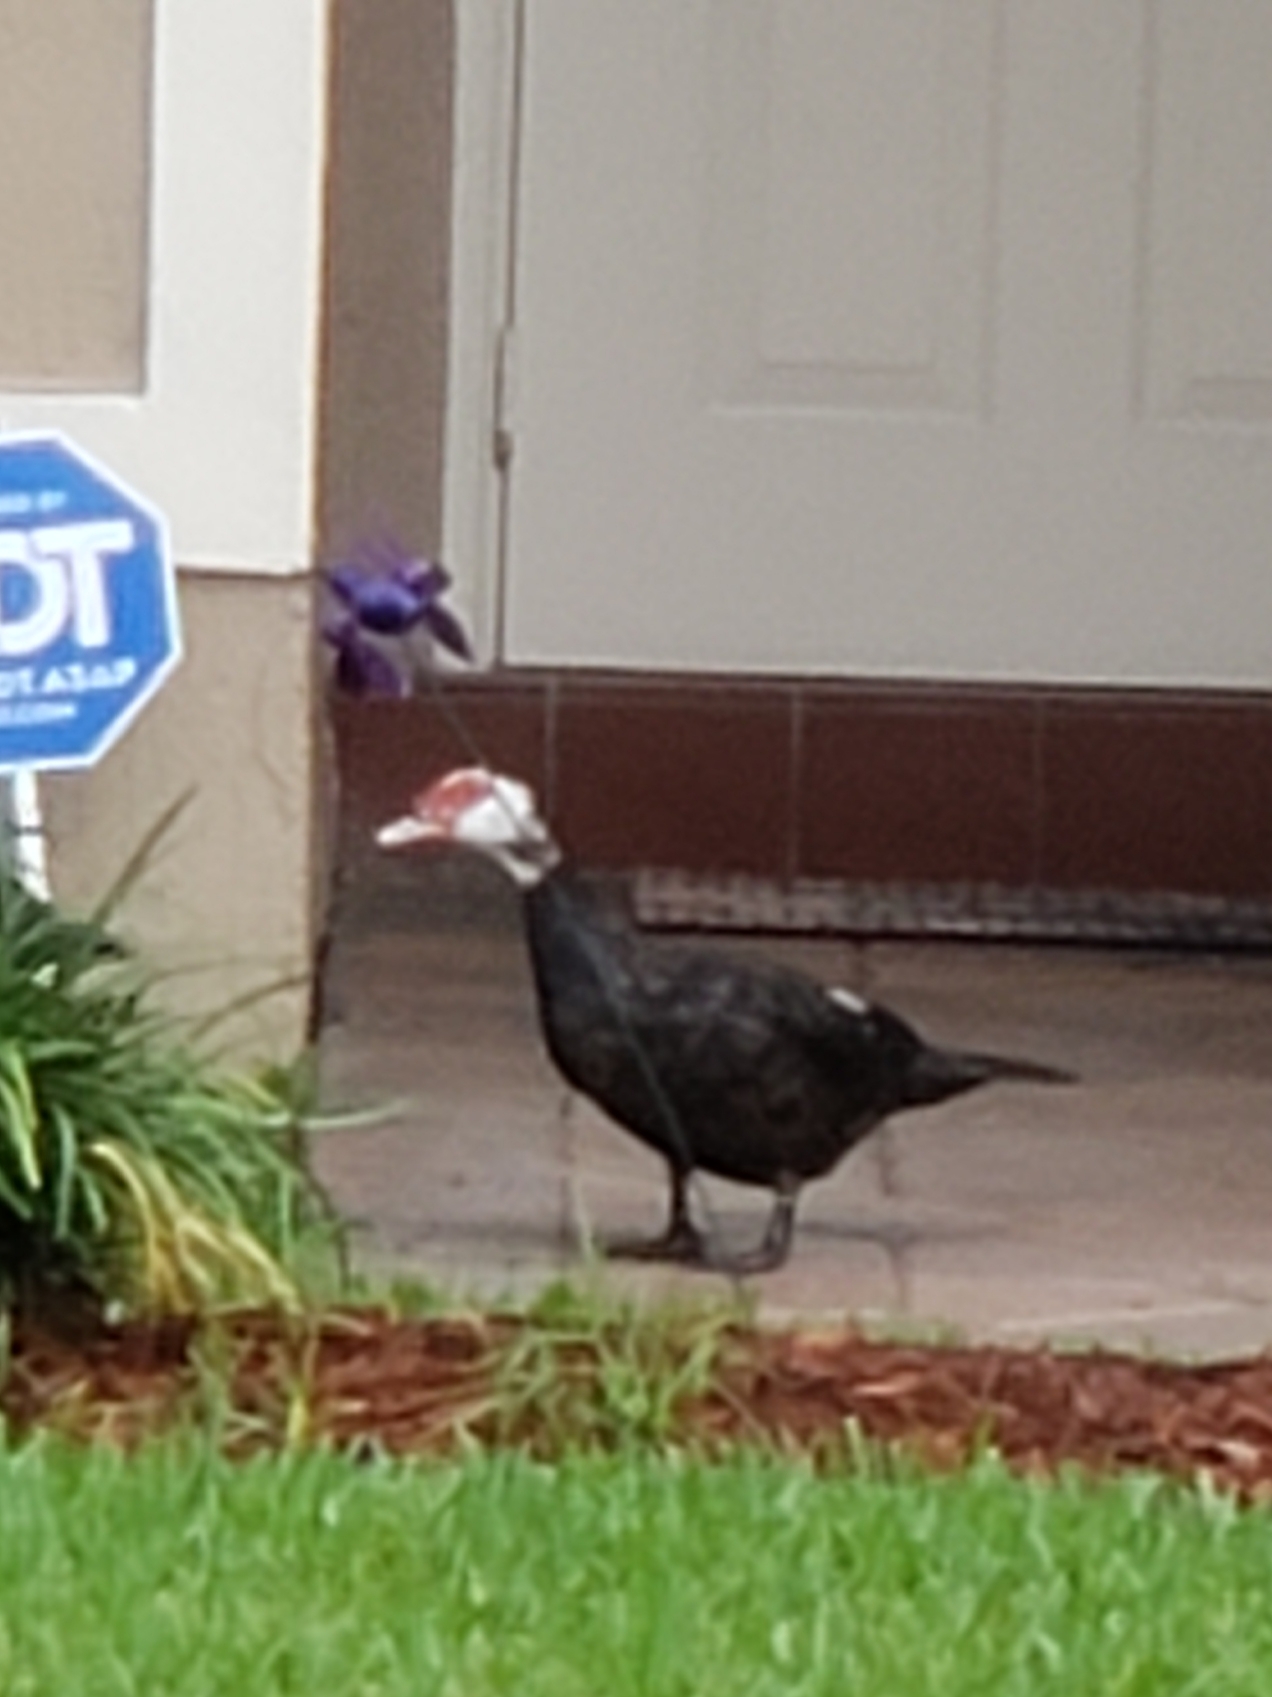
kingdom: Animalia
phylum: Chordata
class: Aves
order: Anseriformes
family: Anatidae
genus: Cairina
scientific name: Cairina moschata
